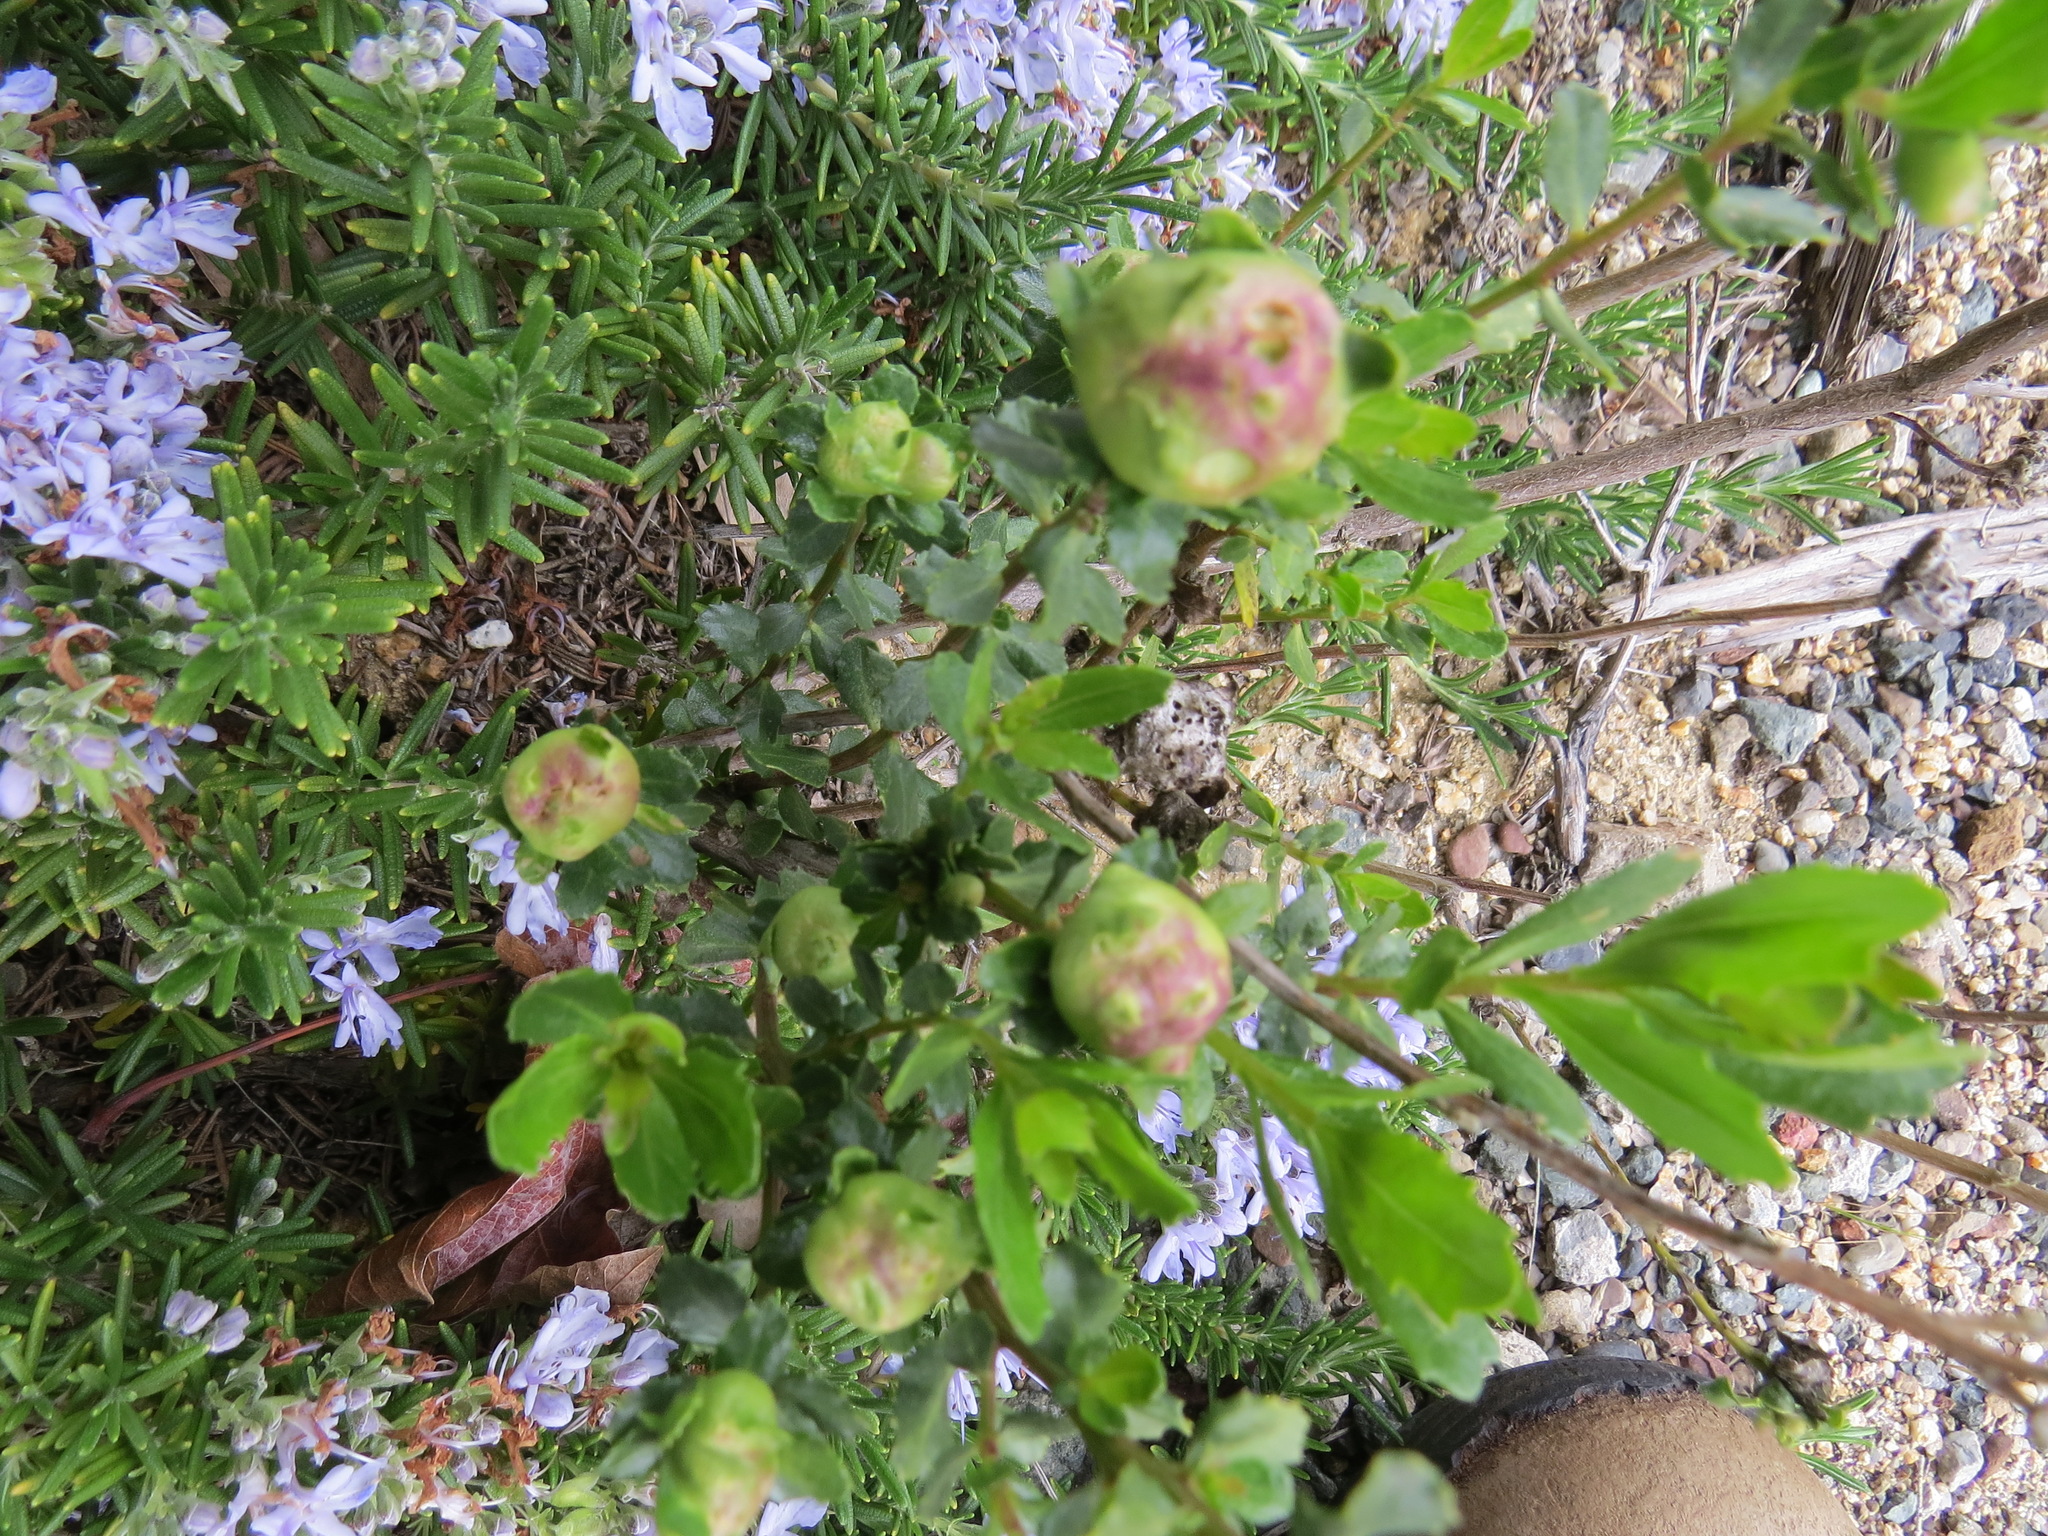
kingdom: Animalia
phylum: Arthropoda
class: Insecta
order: Diptera
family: Cecidomyiidae
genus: Rhopalomyia
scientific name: Rhopalomyia californica
